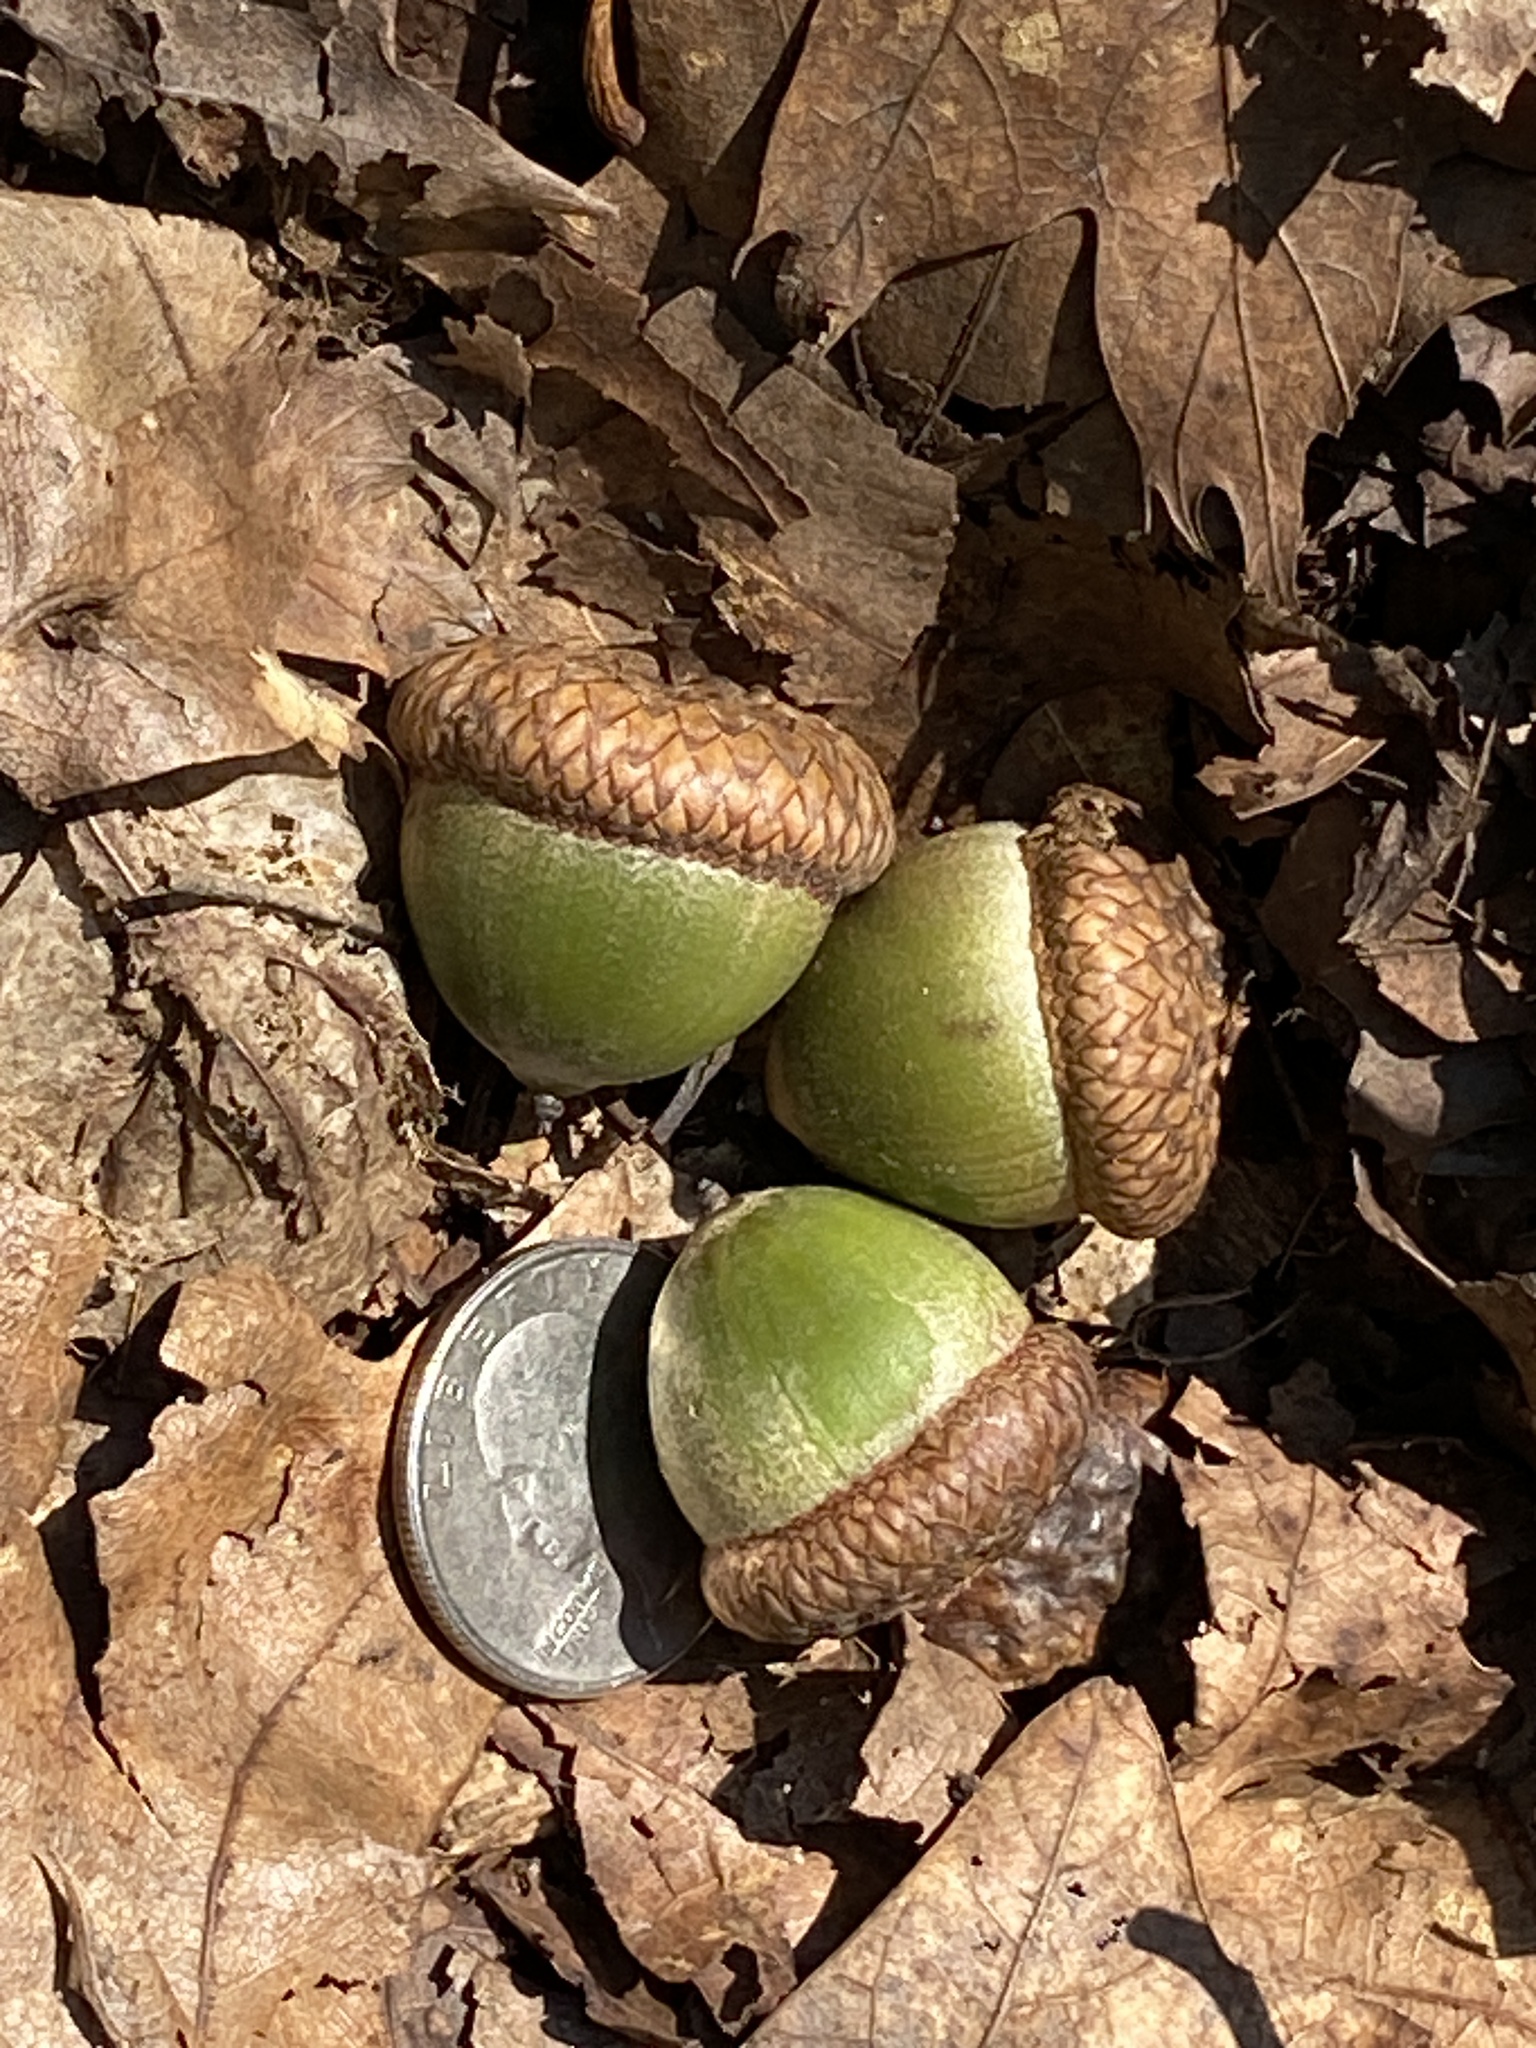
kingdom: Plantae
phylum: Tracheophyta
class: Magnoliopsida
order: Fagales
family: Fagaceae
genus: Quercus
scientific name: Quercus rubra
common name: Red oak
